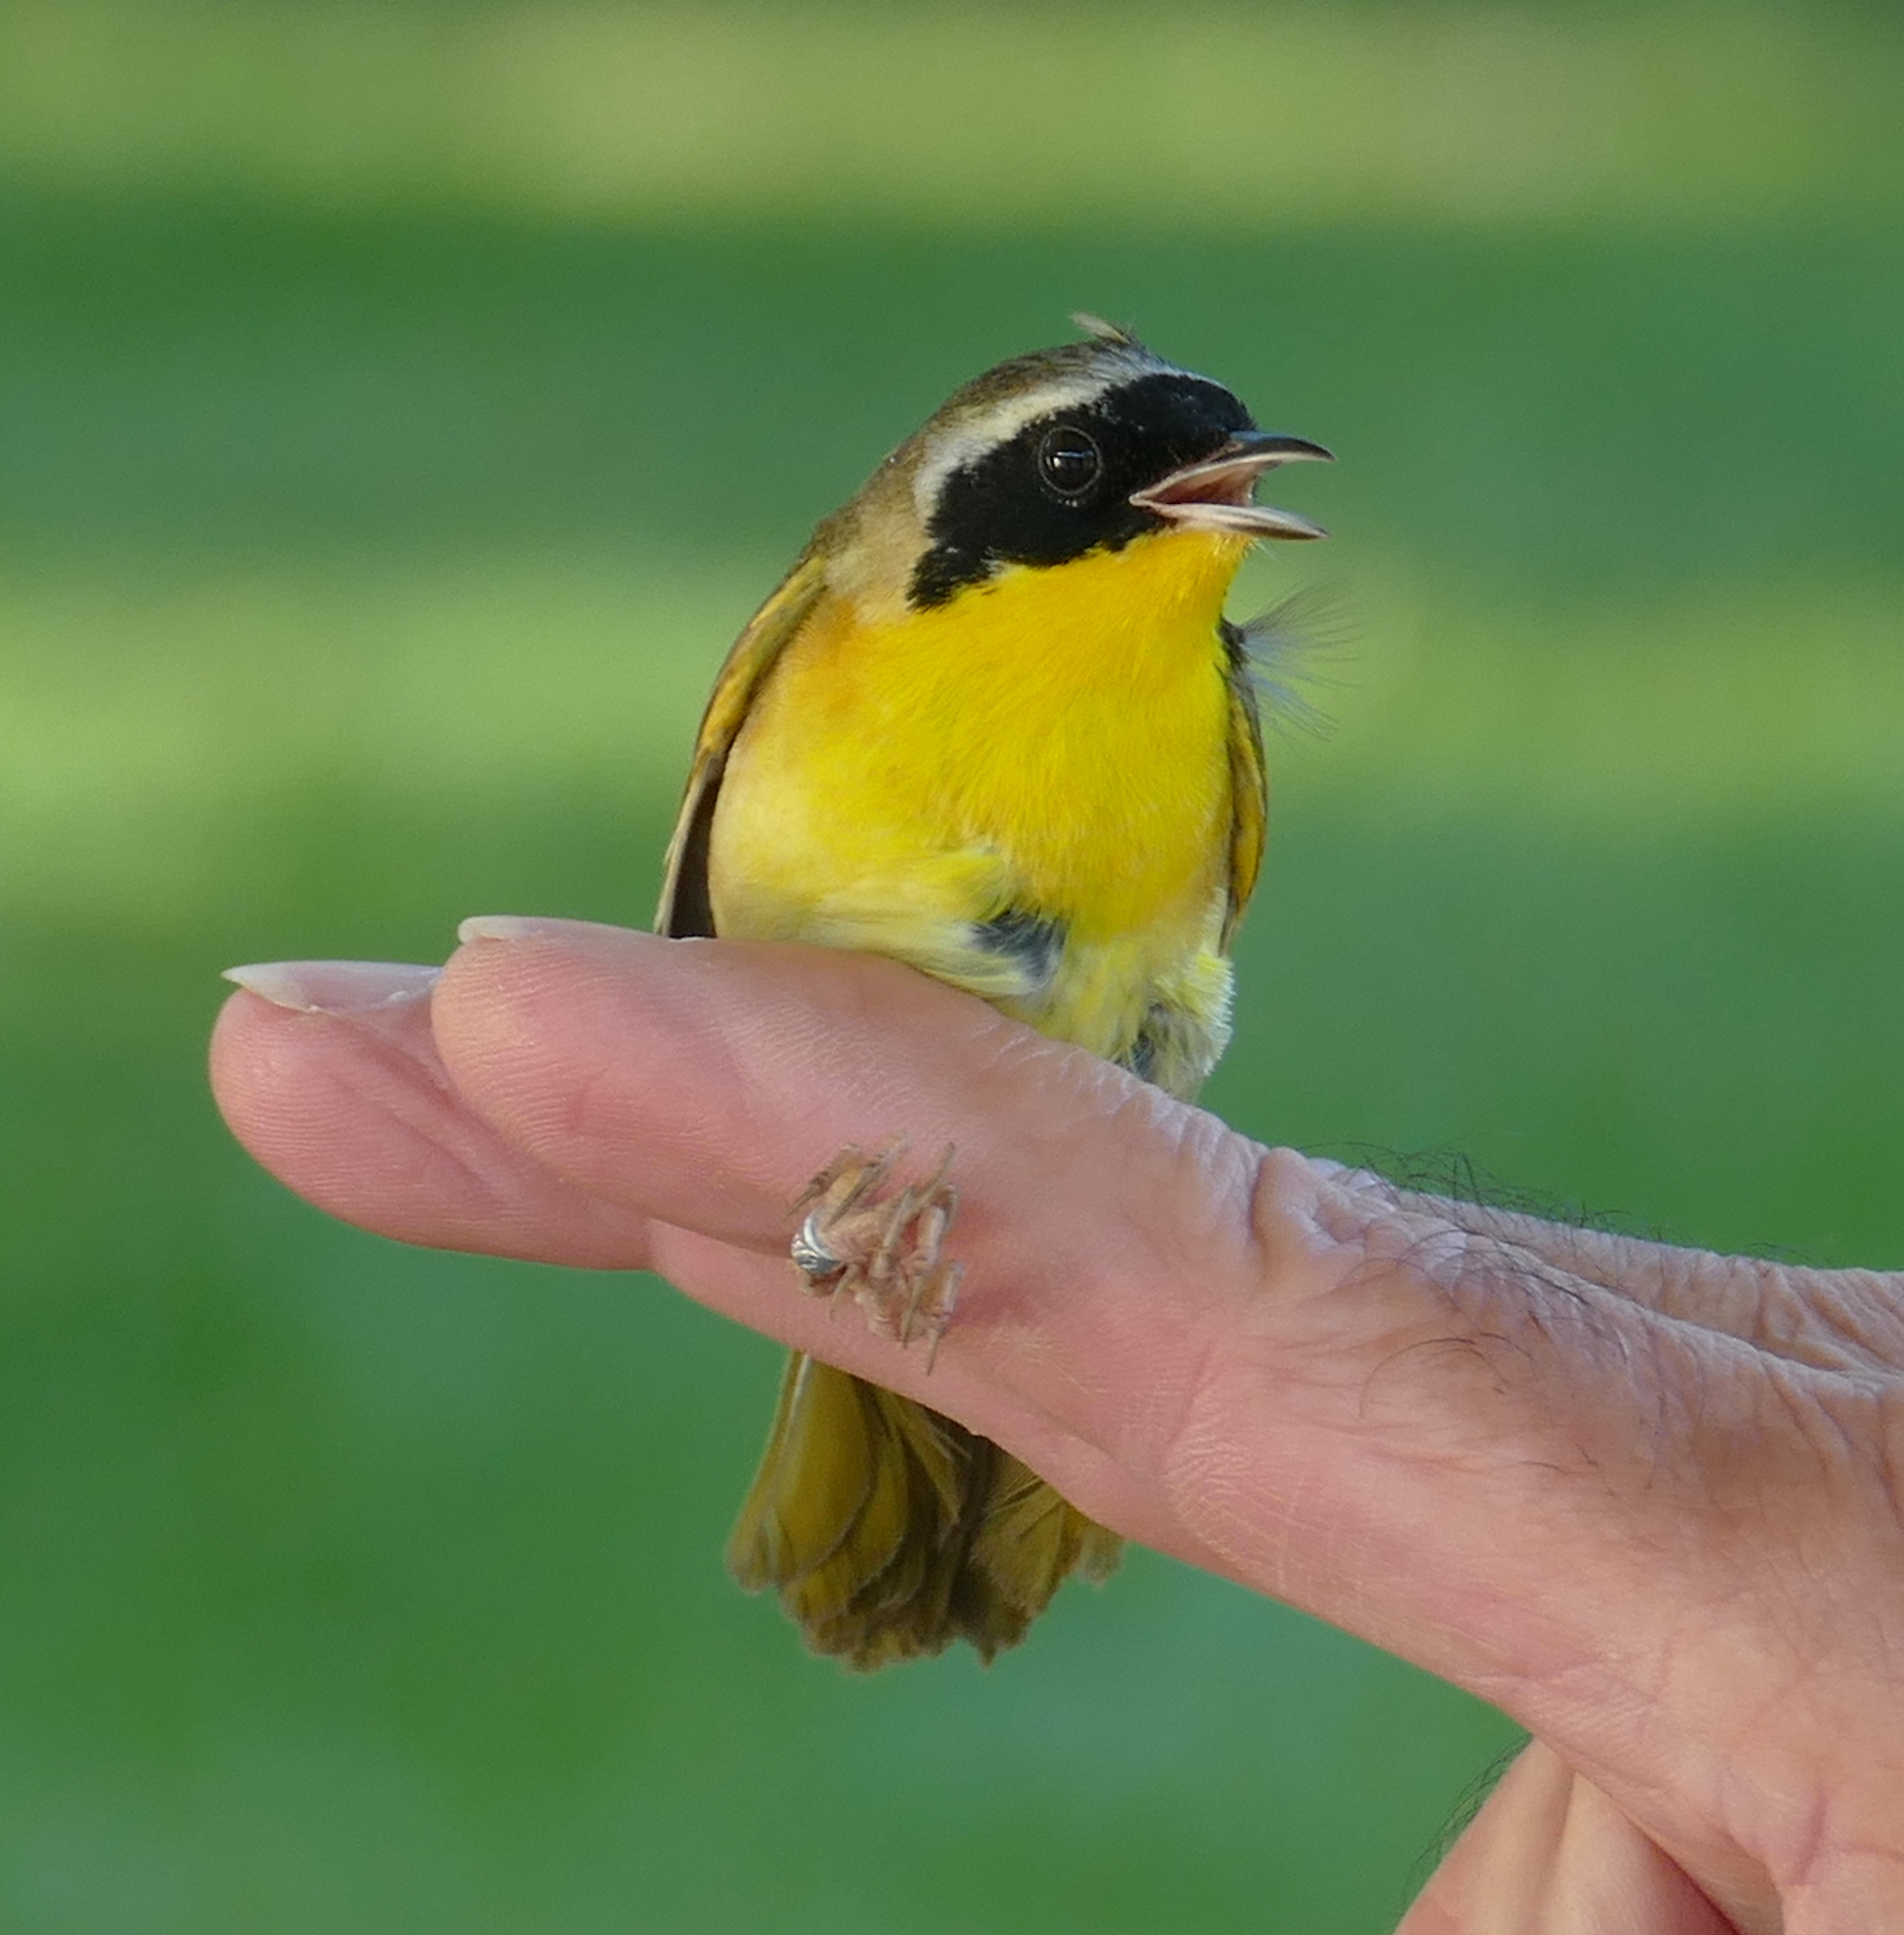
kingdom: Animalia
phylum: Chordata
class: Aves
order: Passeriformes
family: Parulidae
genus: Geothlypis
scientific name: Geothlypis trichas
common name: Common yellowthroat
